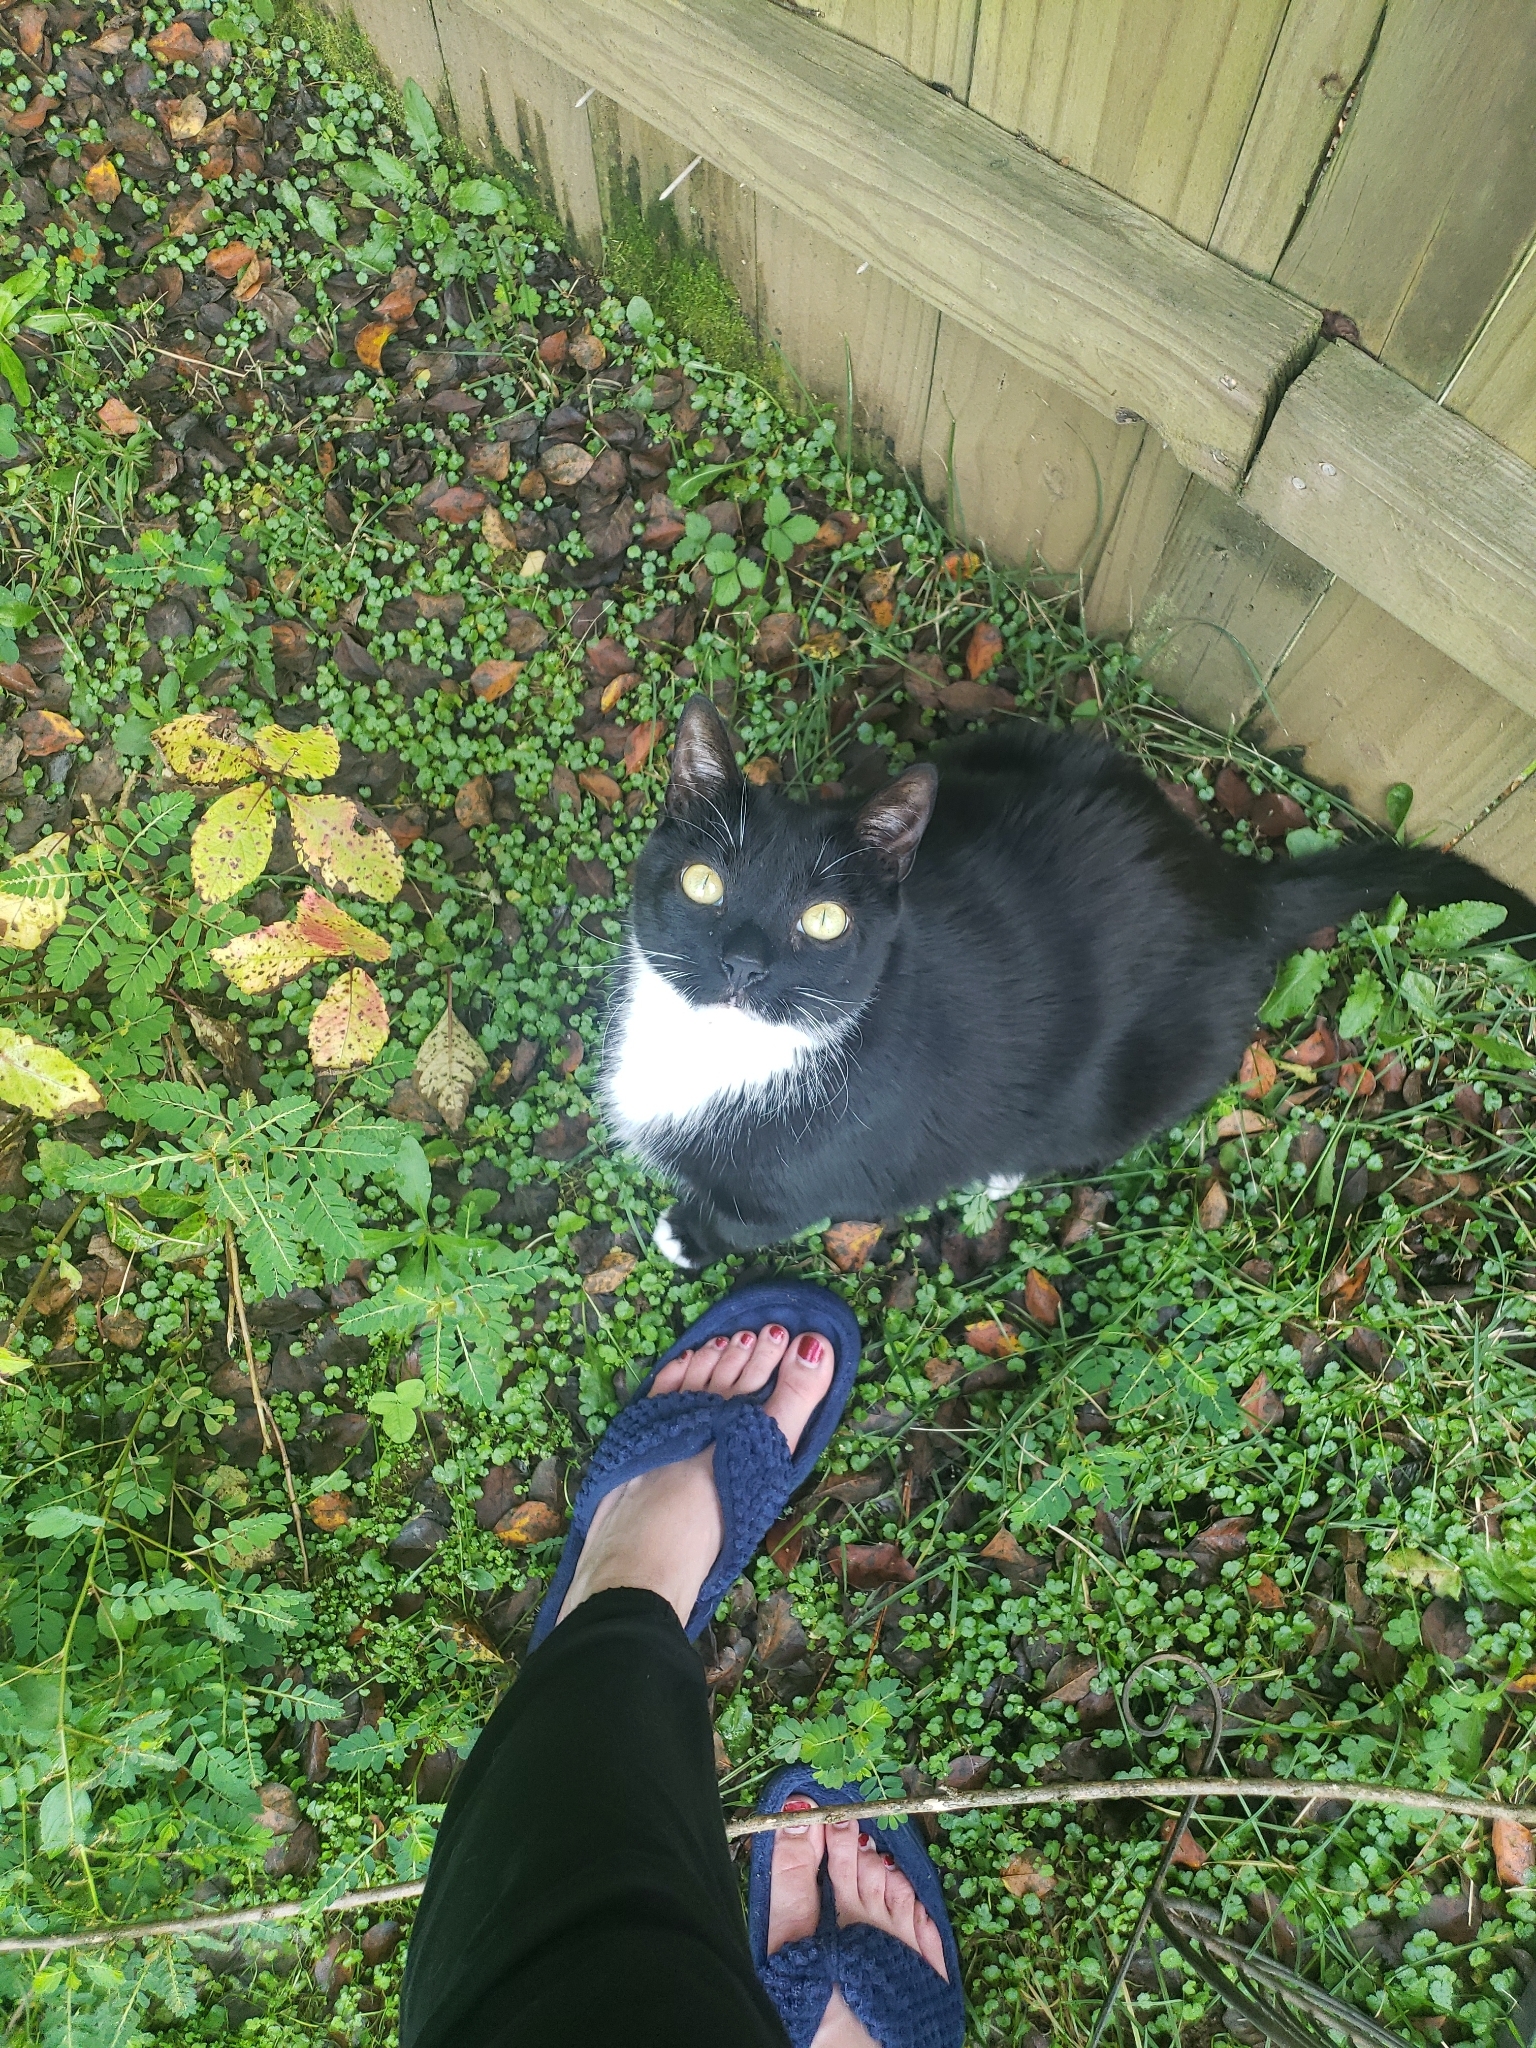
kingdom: Animalia
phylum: Chordata
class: Mammalia
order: Carnivora
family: Felidae
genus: Felis
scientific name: Felis catus
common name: Domestic cat
